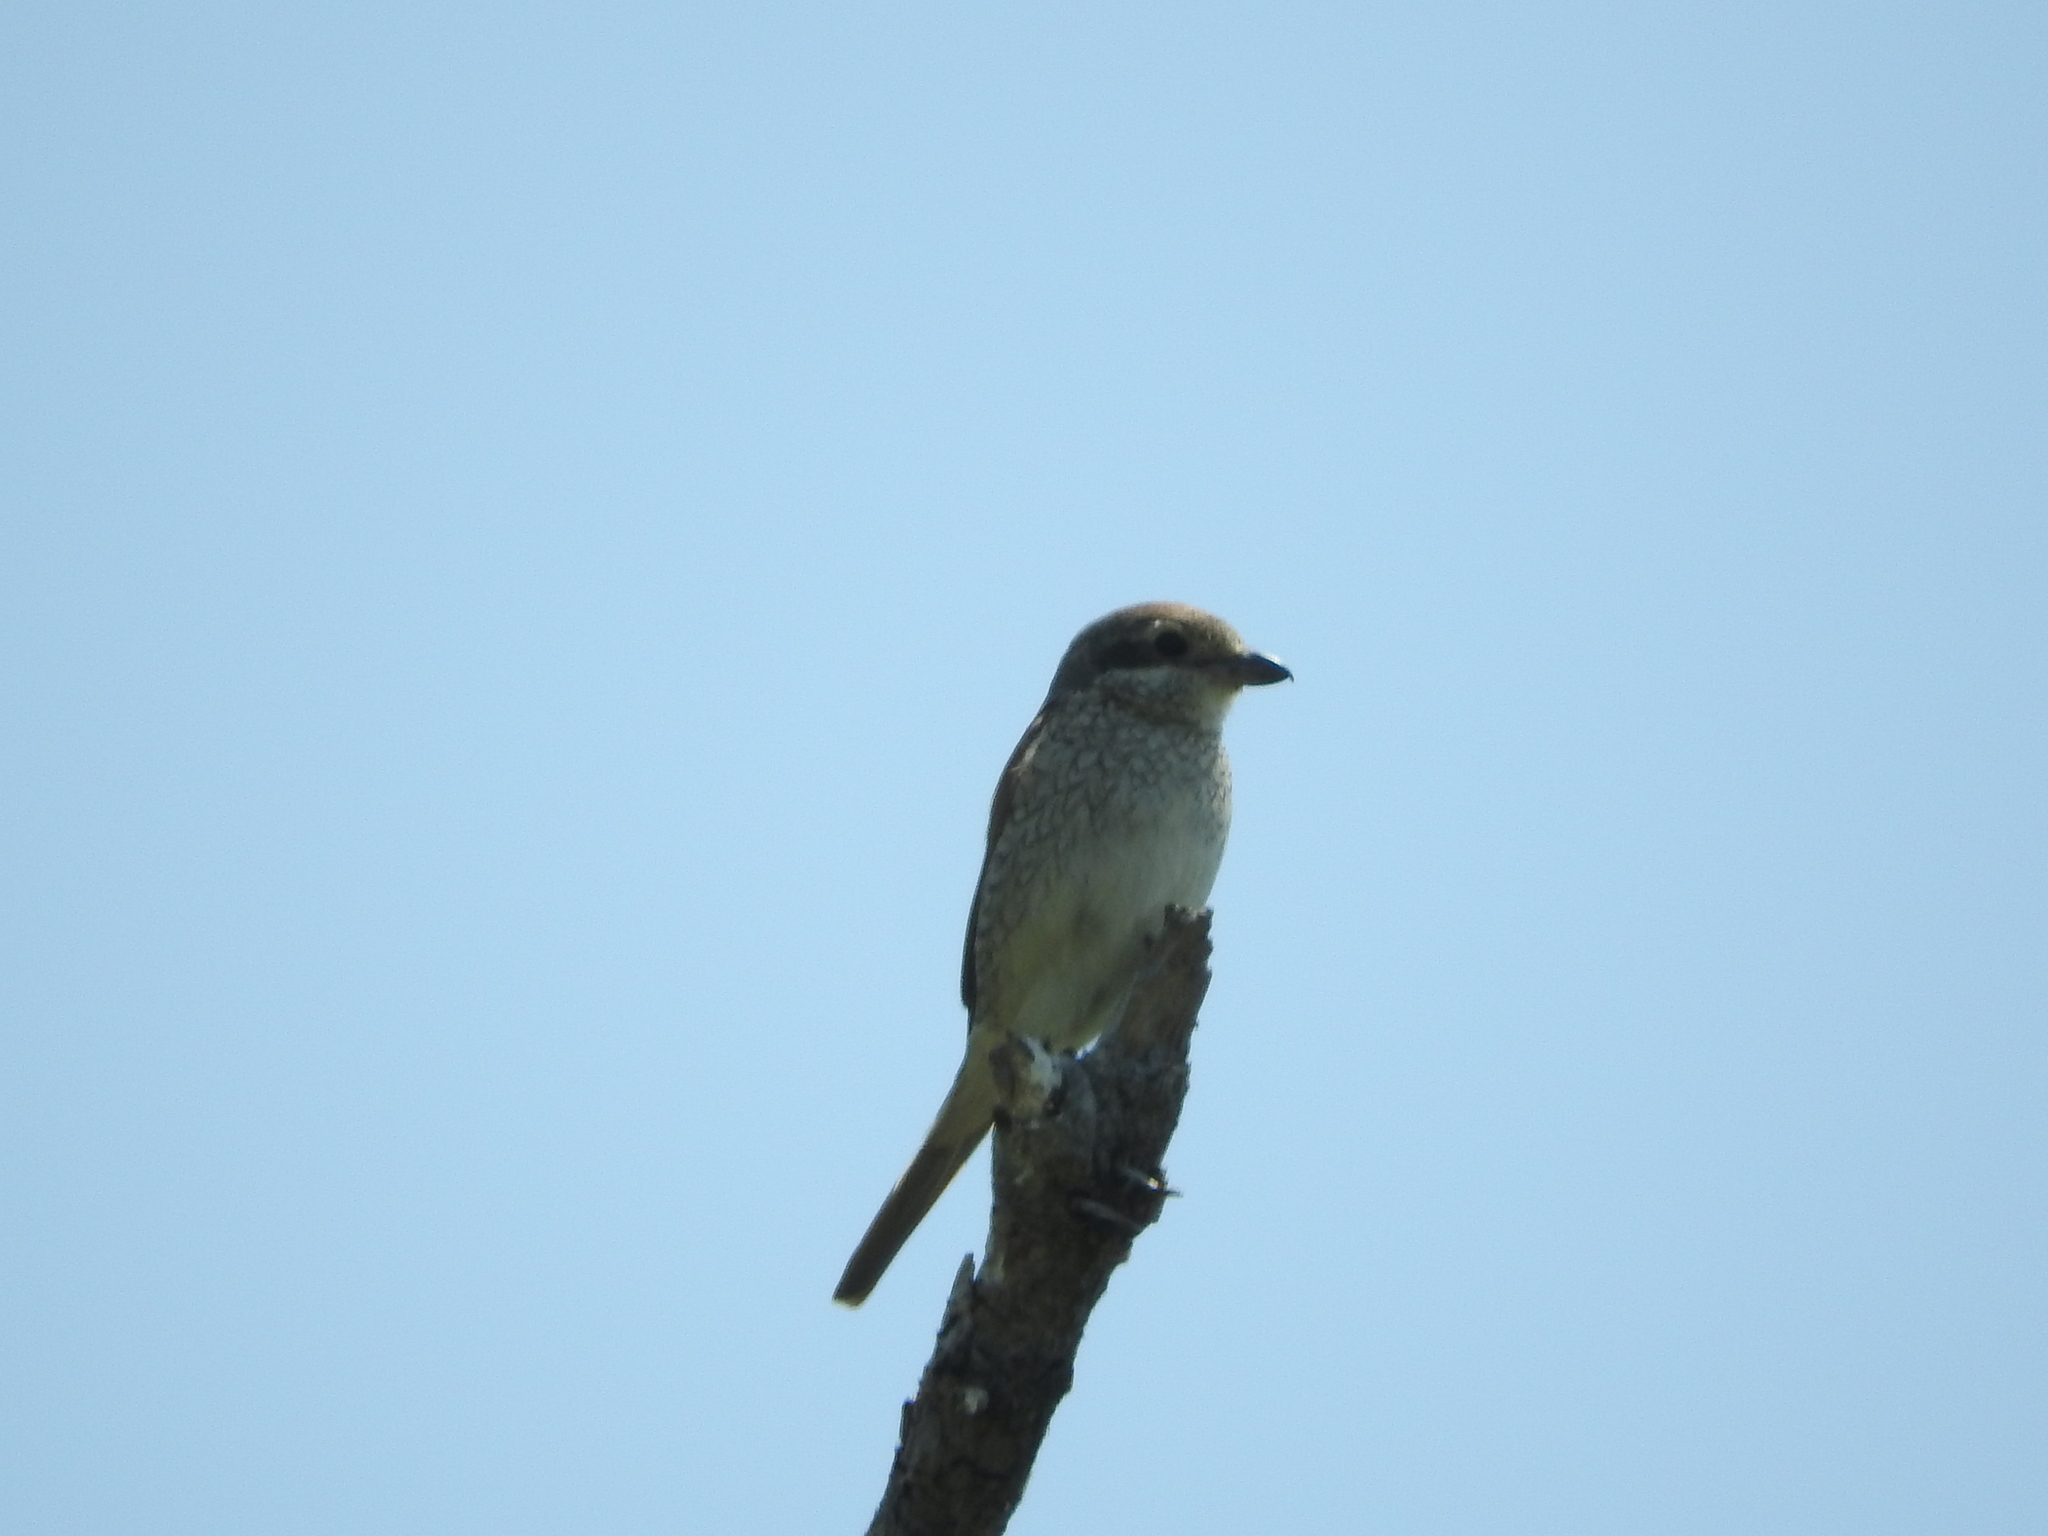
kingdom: Animalia
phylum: Chordata
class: Aves
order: Passeriformes
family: Laniidae
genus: Lanius
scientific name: Lanius collurio
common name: Red-backed shrike
